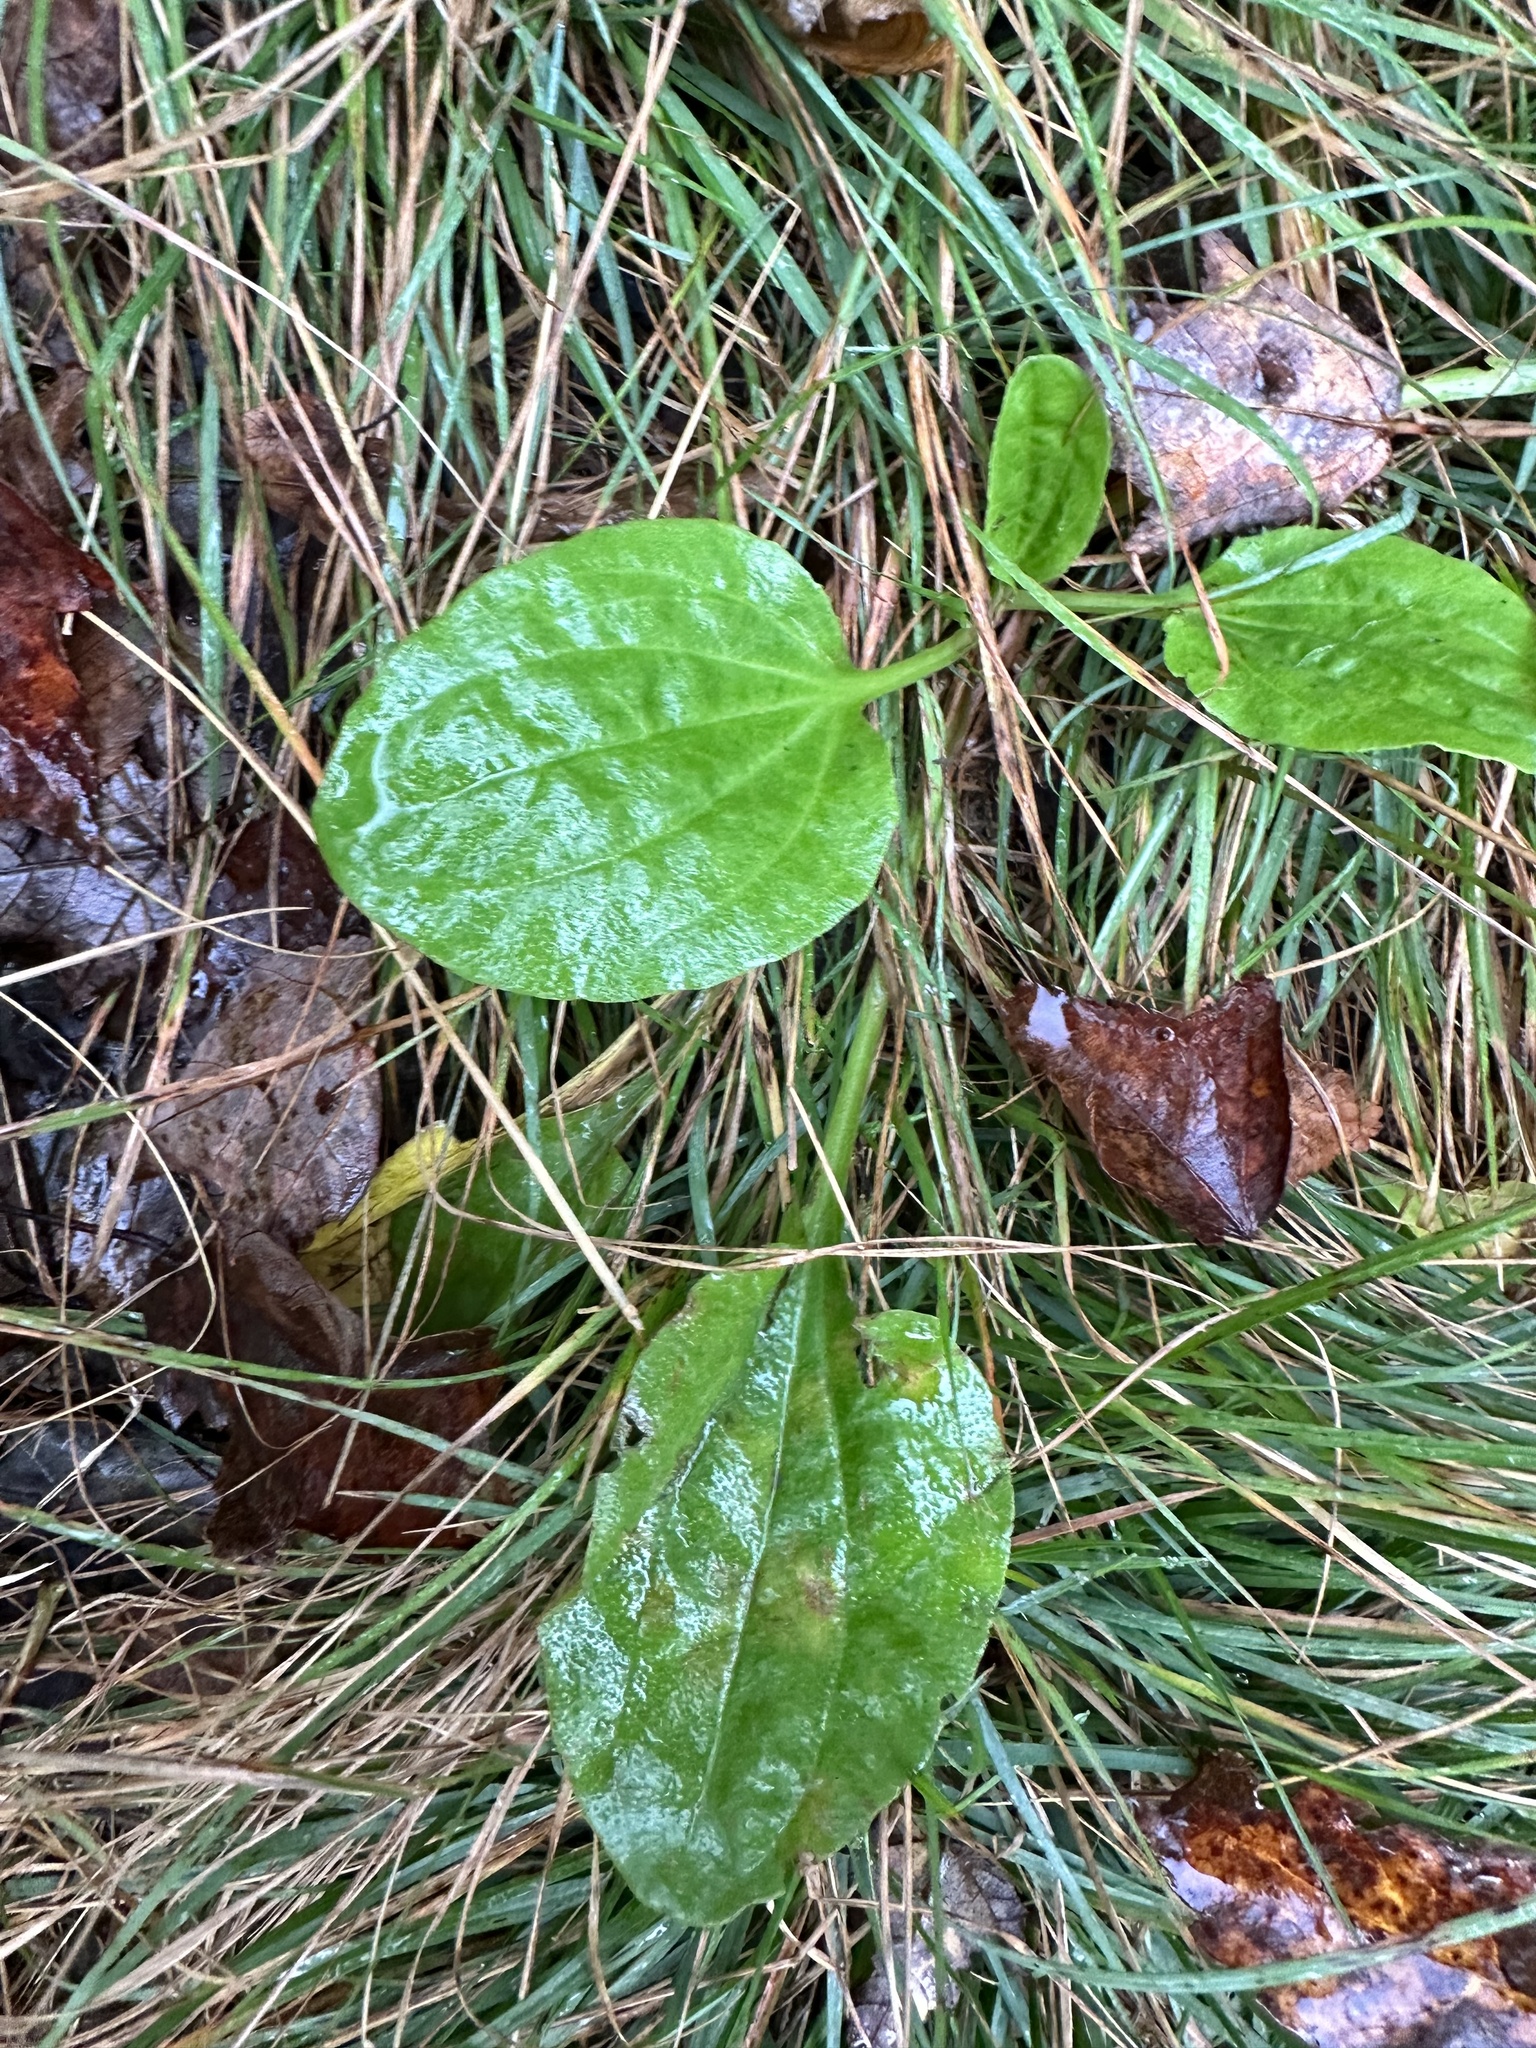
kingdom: Plantae
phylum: Tracheophyta
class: Magnoliopsida
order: Lamiales
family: Plantaginaceae
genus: Plantago
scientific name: Plantago major
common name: Common plantain
